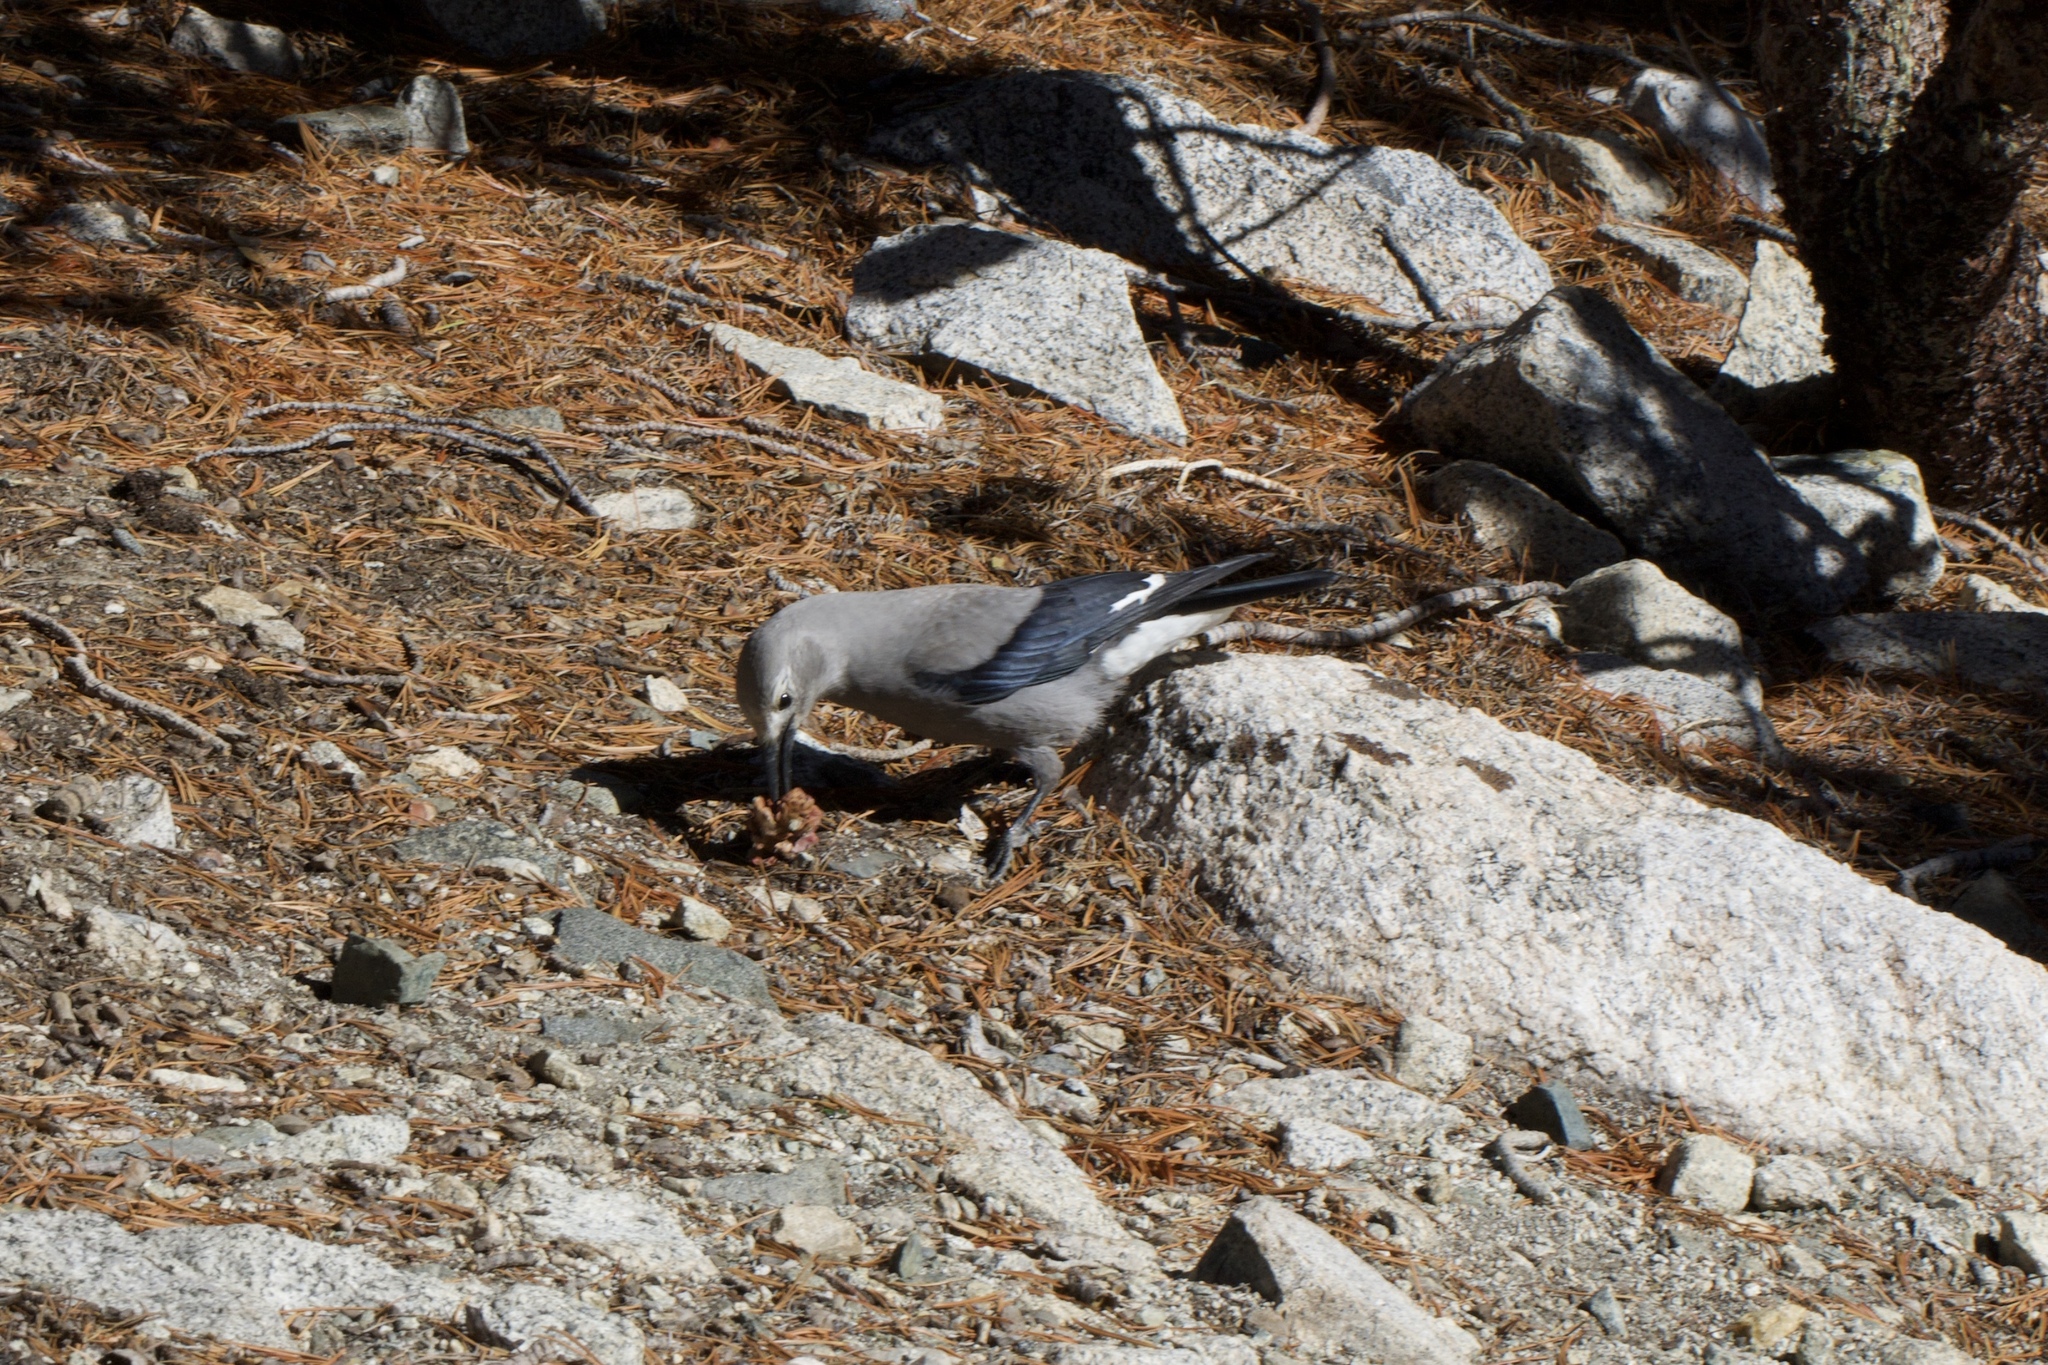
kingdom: Animalia
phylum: Chordata
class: Aves
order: Passeriformes
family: Corvidae
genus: Nucifraga
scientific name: Nucifraga columbiana
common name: Clark's nutcracker
